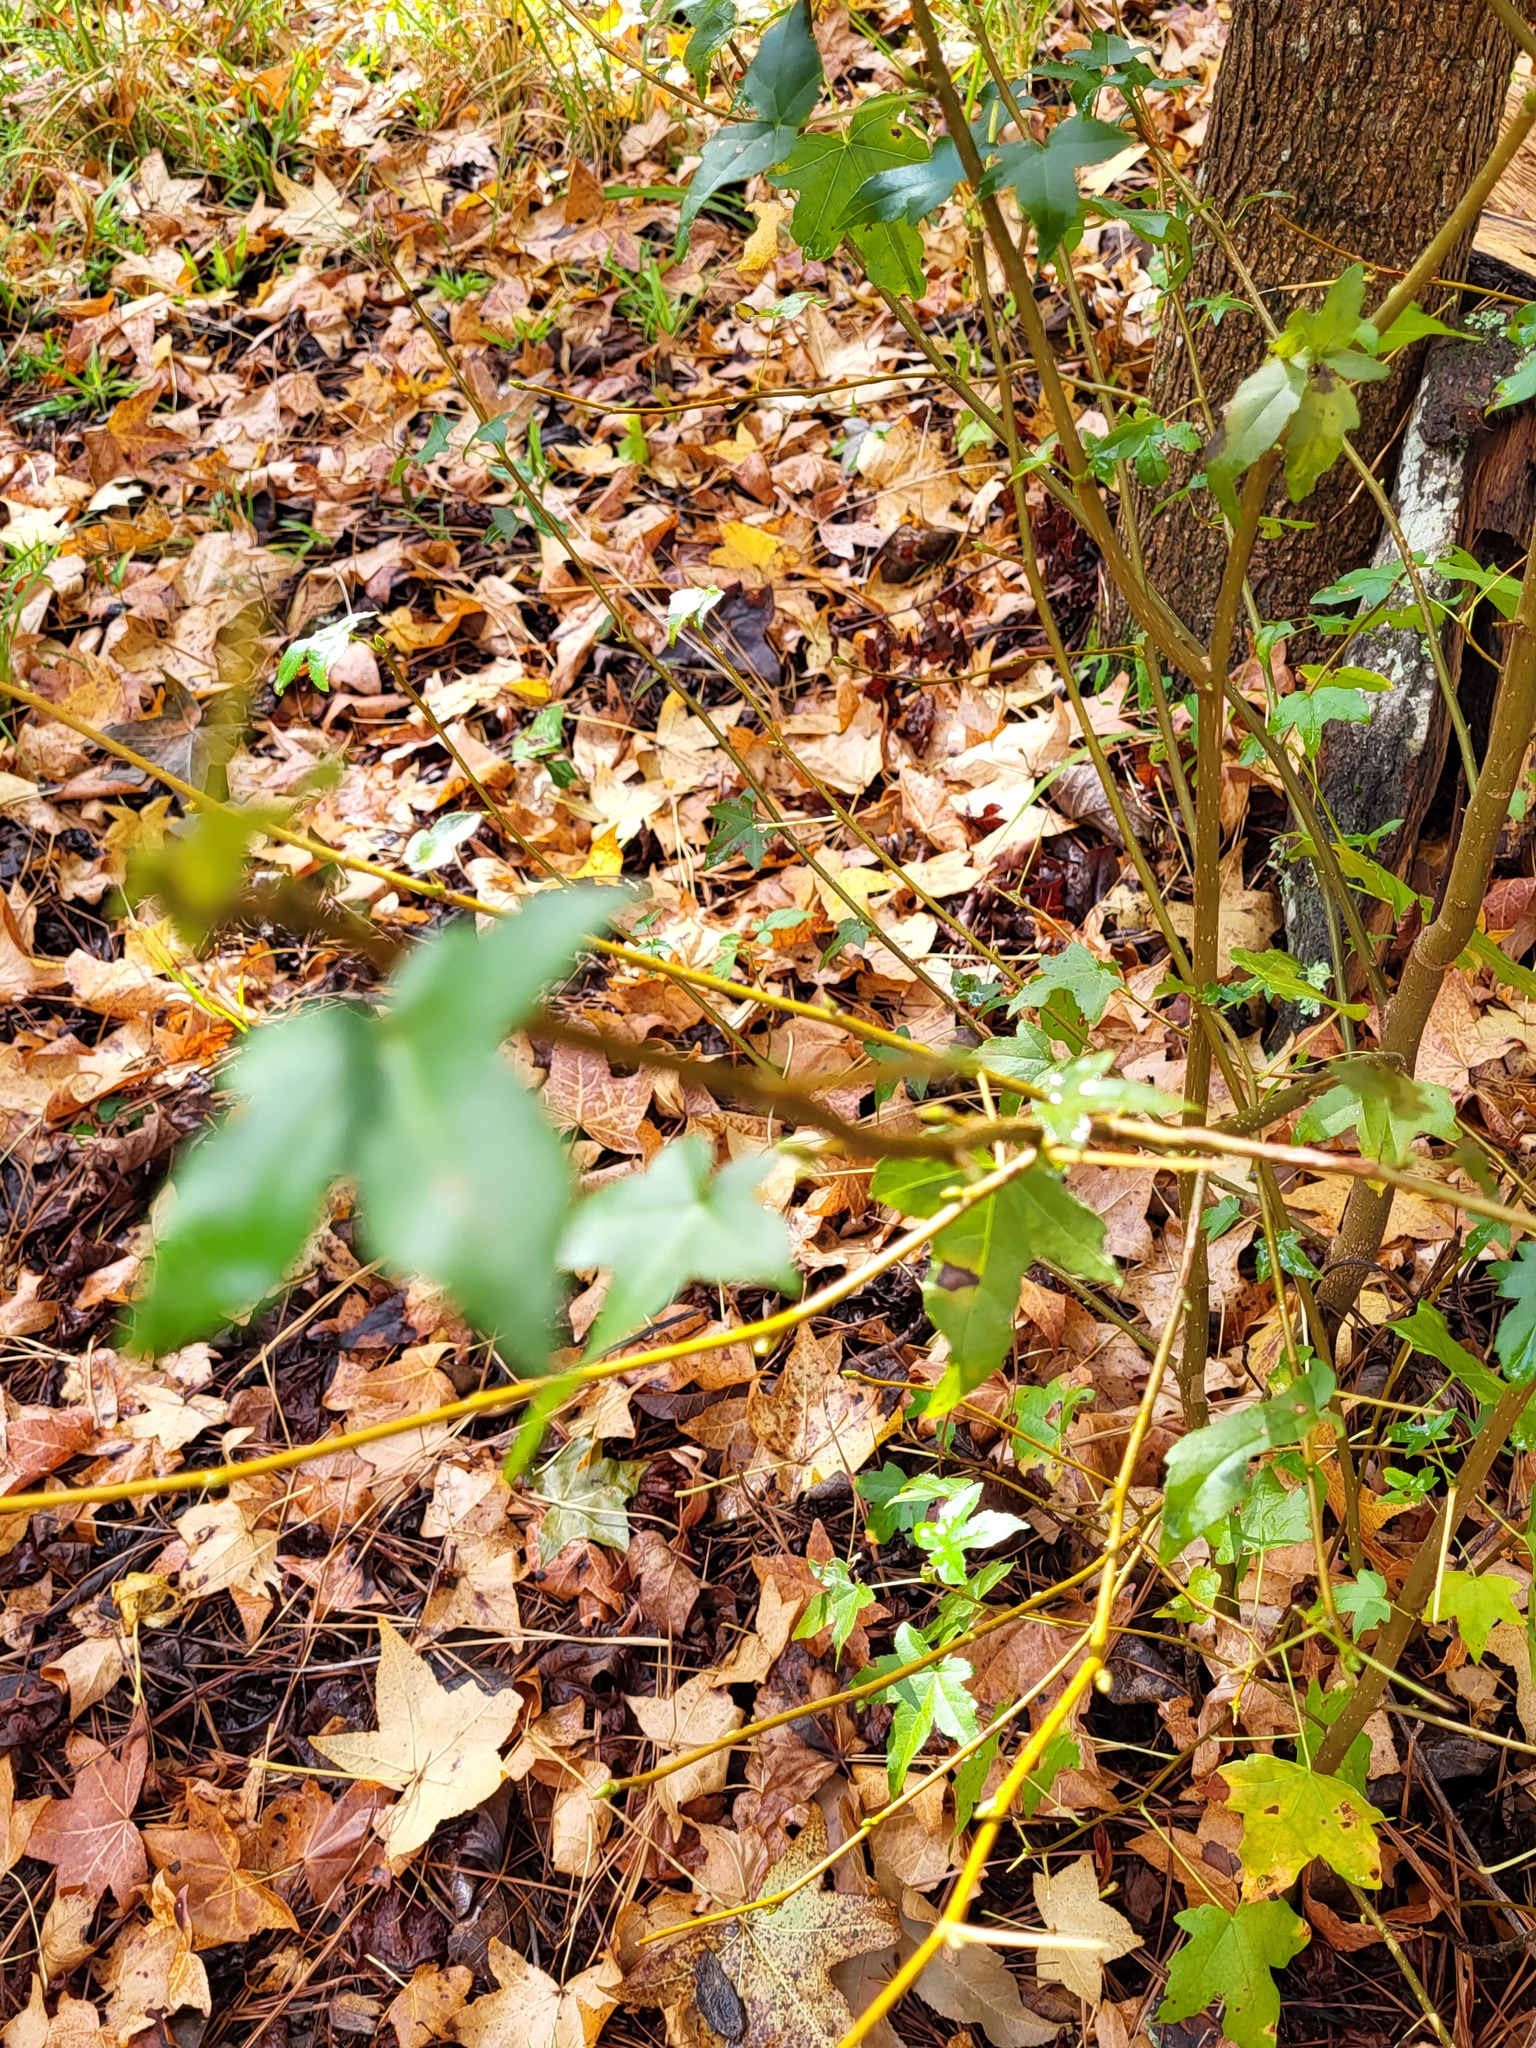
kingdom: Plantae
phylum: Tracheophyta
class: Magnoliopsida
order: Saxifragales
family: Altingiaceae
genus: Liquidambar
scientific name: Liquidambar styraciflua
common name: Sweet gum
